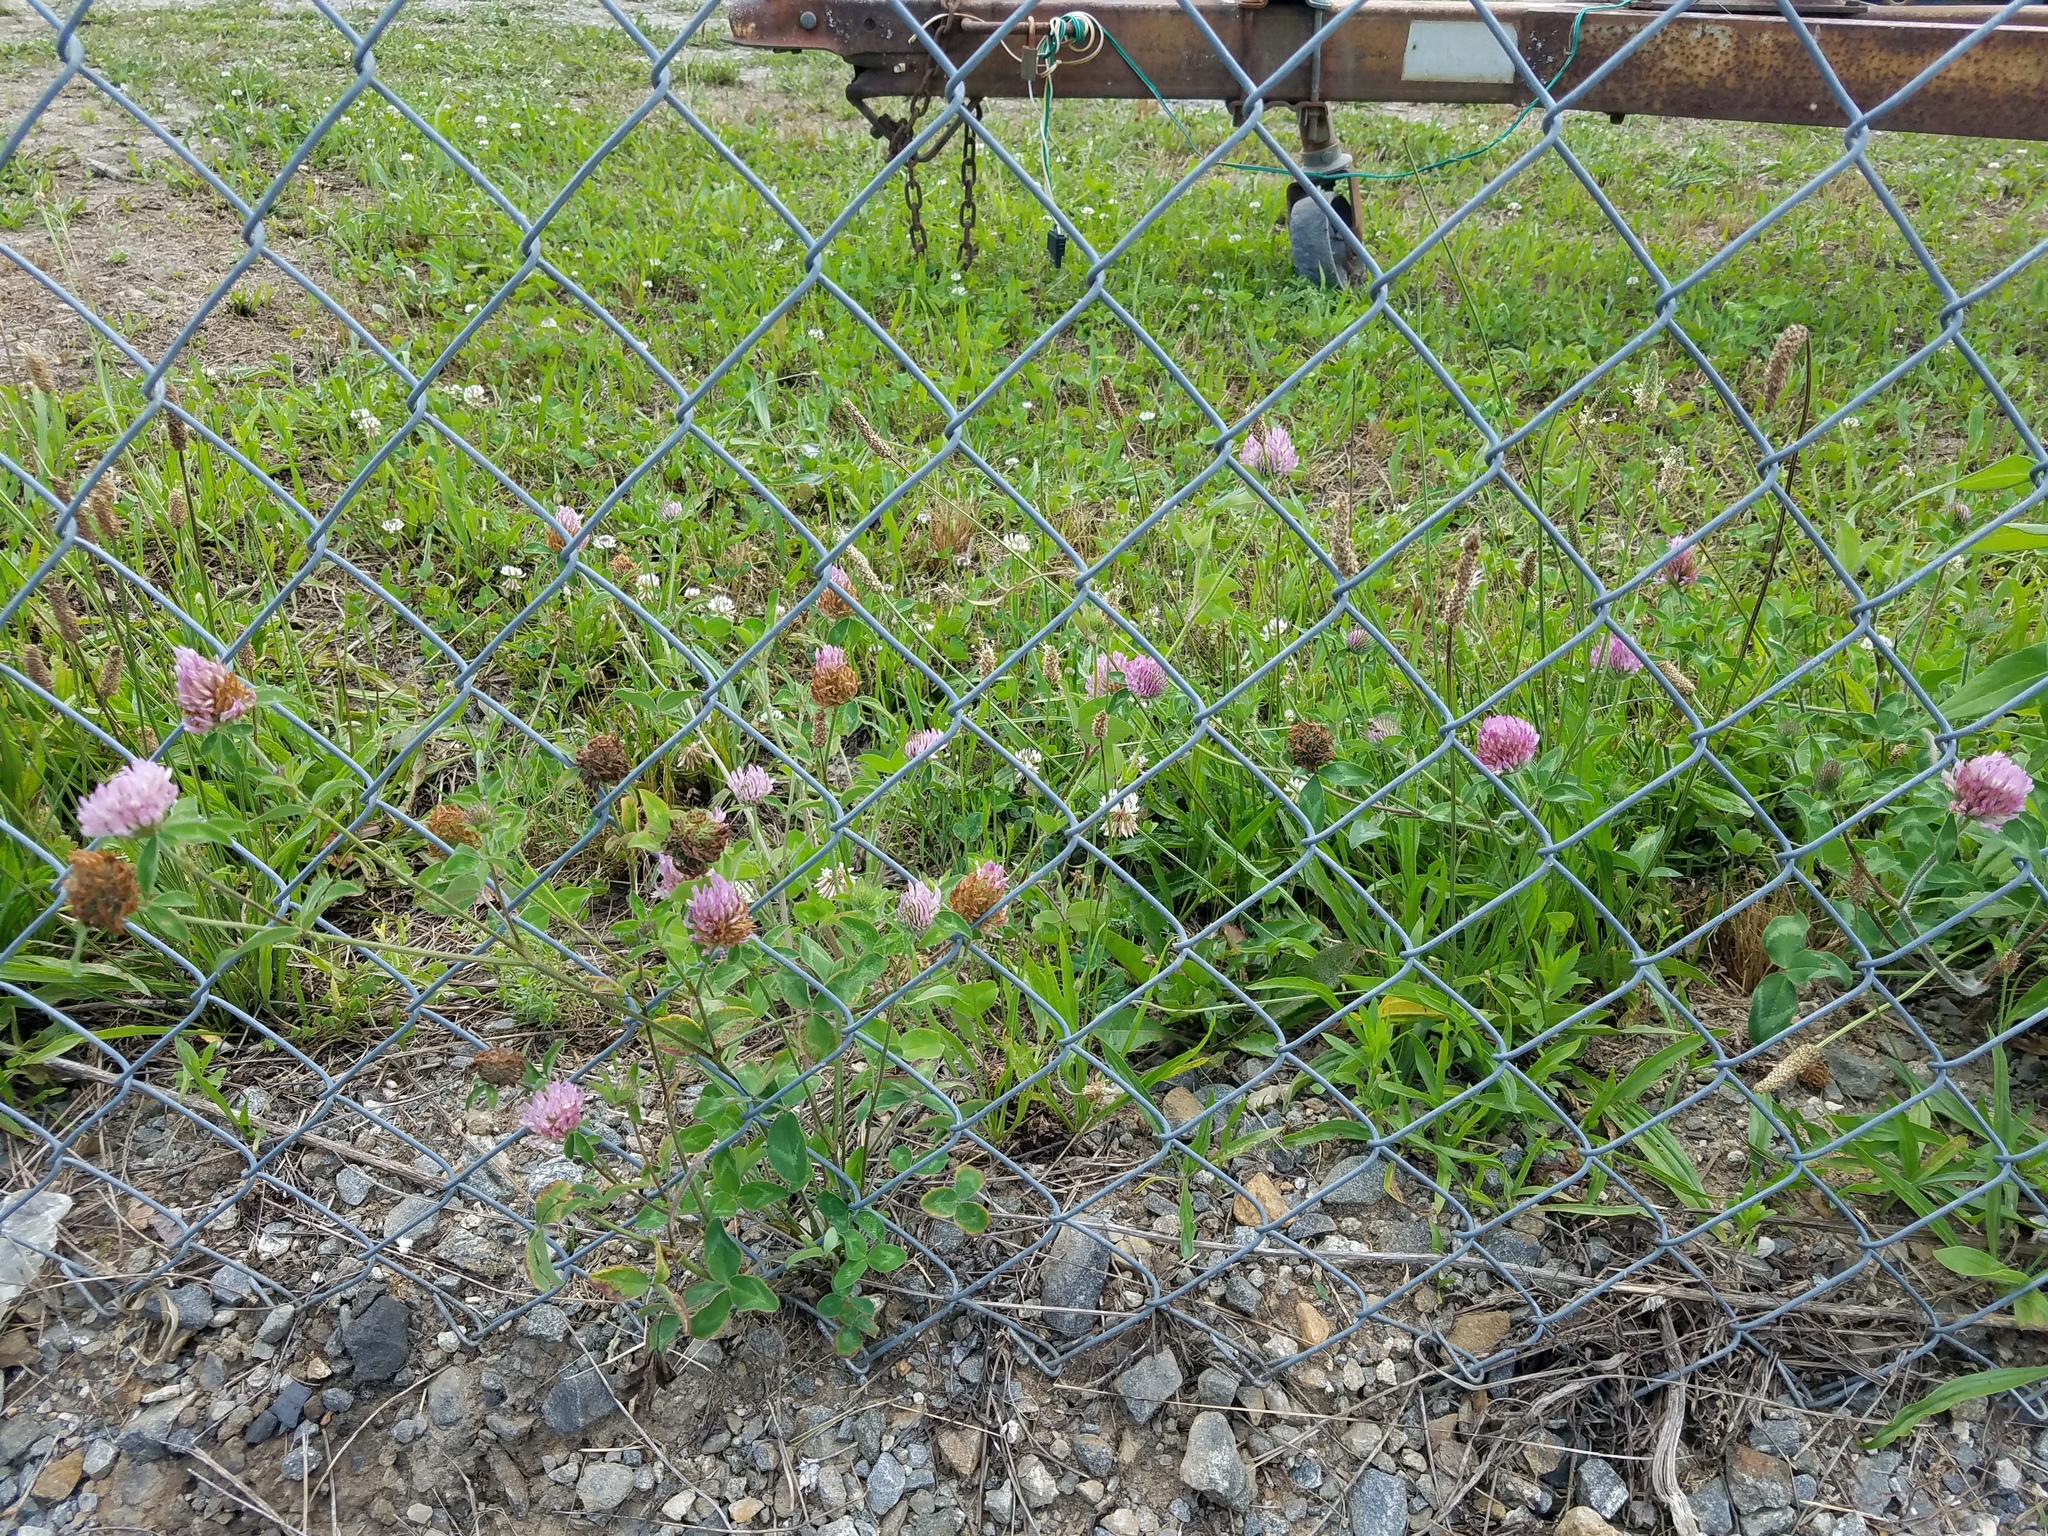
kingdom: Plantae
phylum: Tracheophyta
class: Magnoliopsida
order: Fabales
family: Fabaceae
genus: Trifolium
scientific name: Trifolium pratense
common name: Red clover
